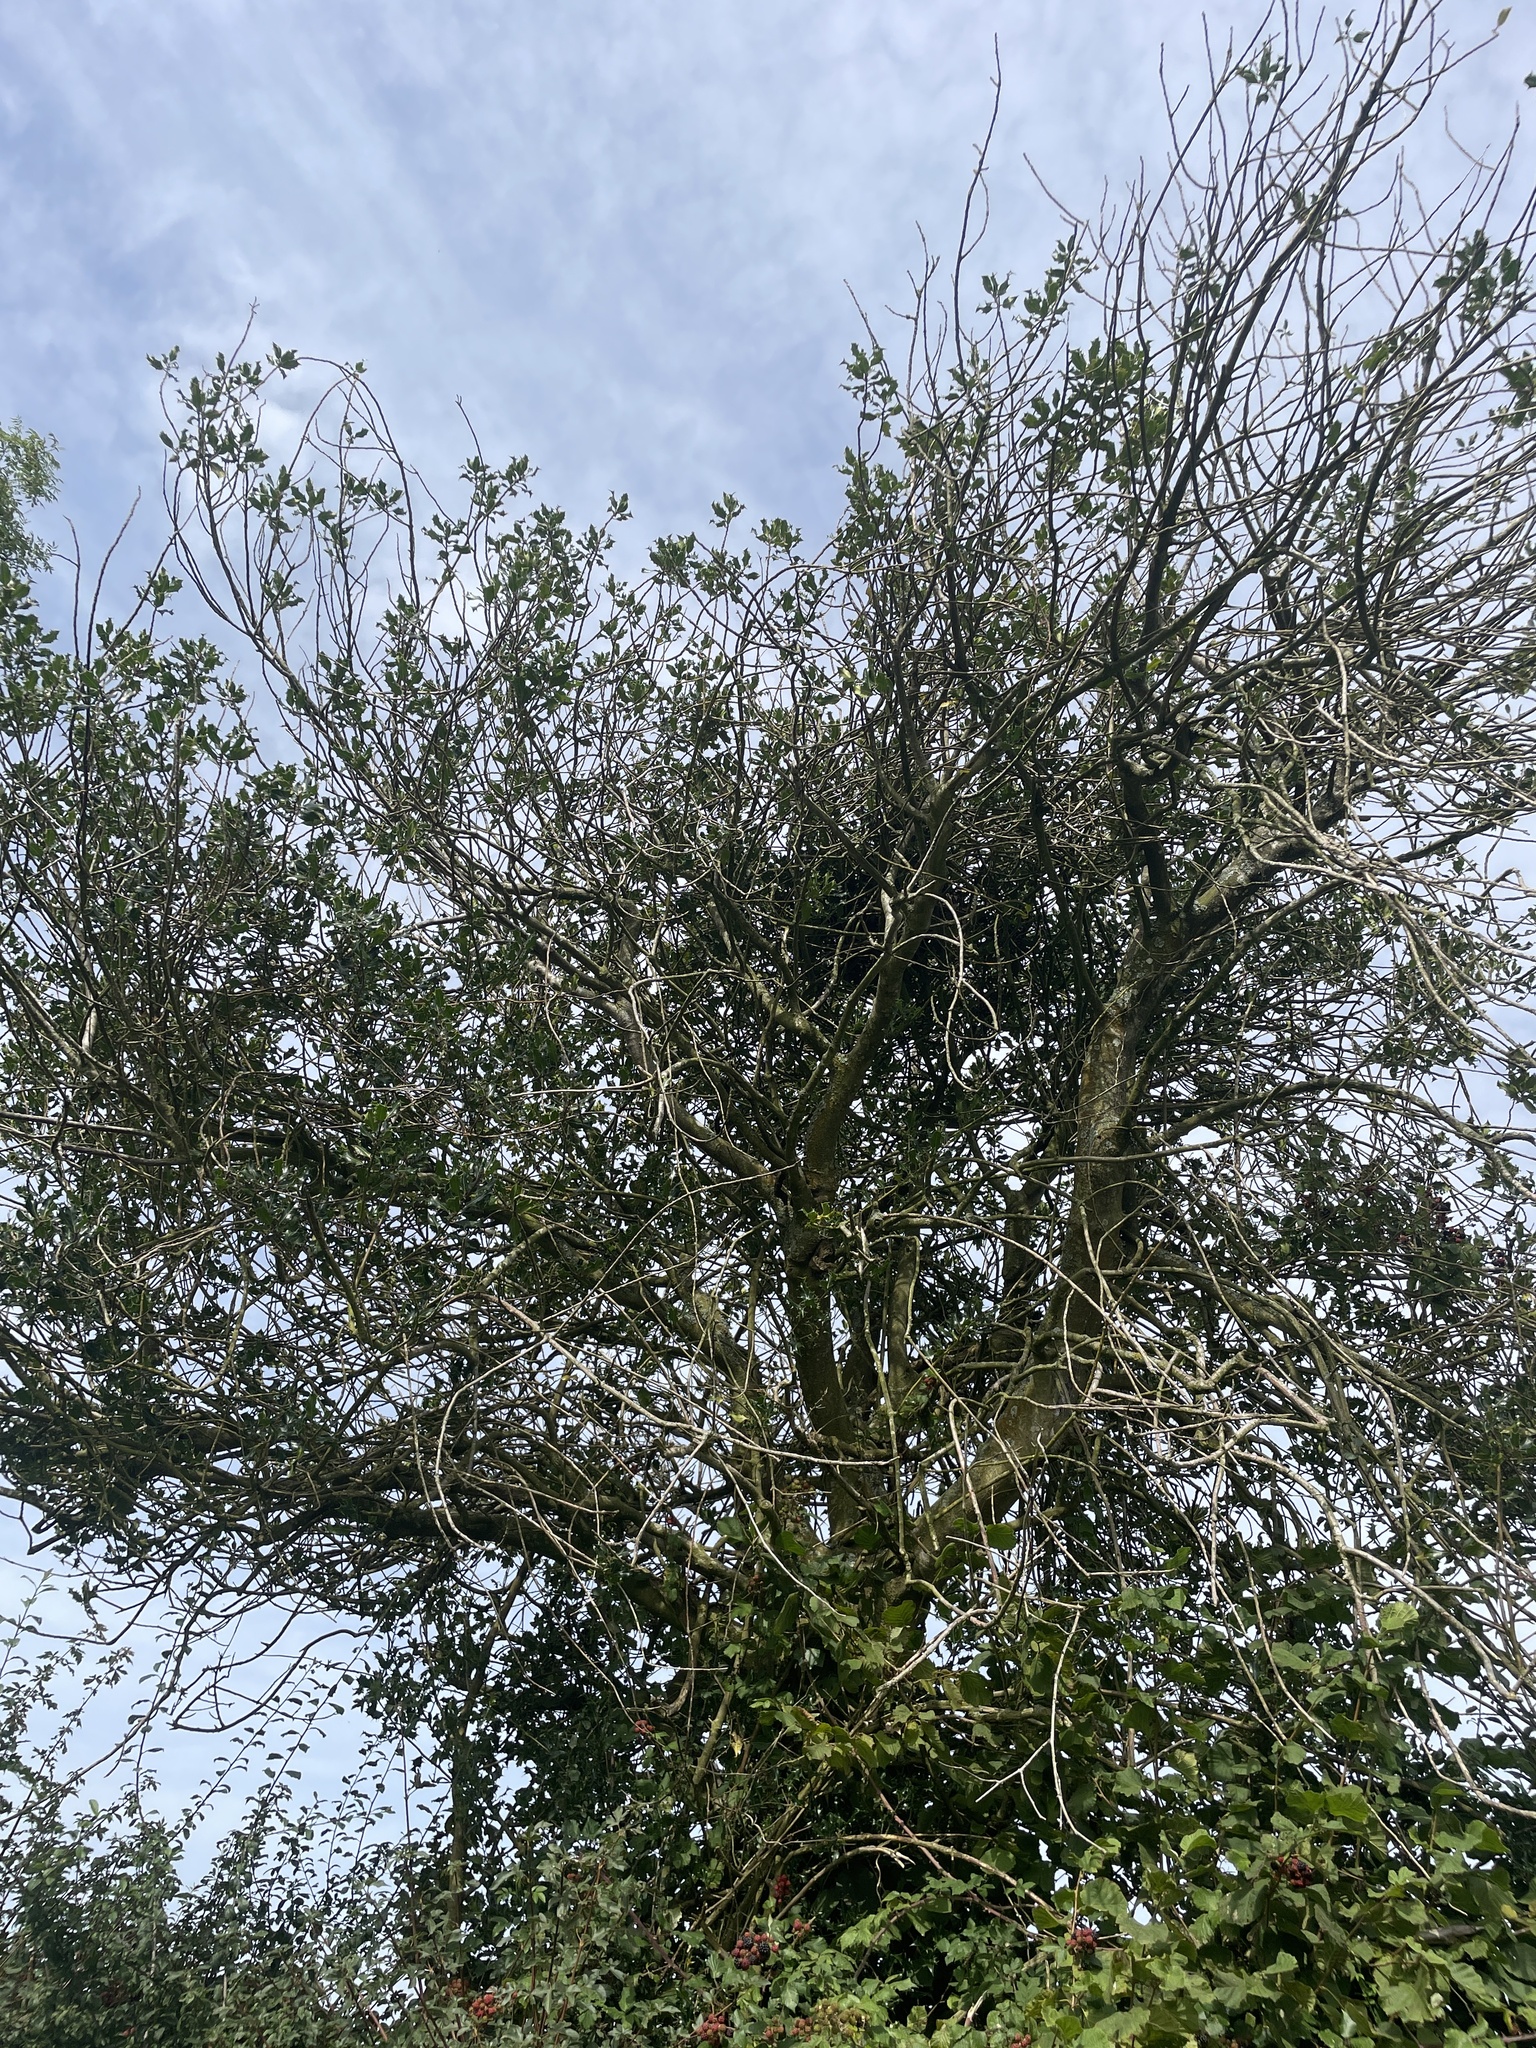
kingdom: Plantae
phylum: Tracheophyta
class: Magnoliopsida
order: Aquifoliales
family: Aquifoliaceae
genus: Ilex
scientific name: Ilex aquifolium
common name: English holly
